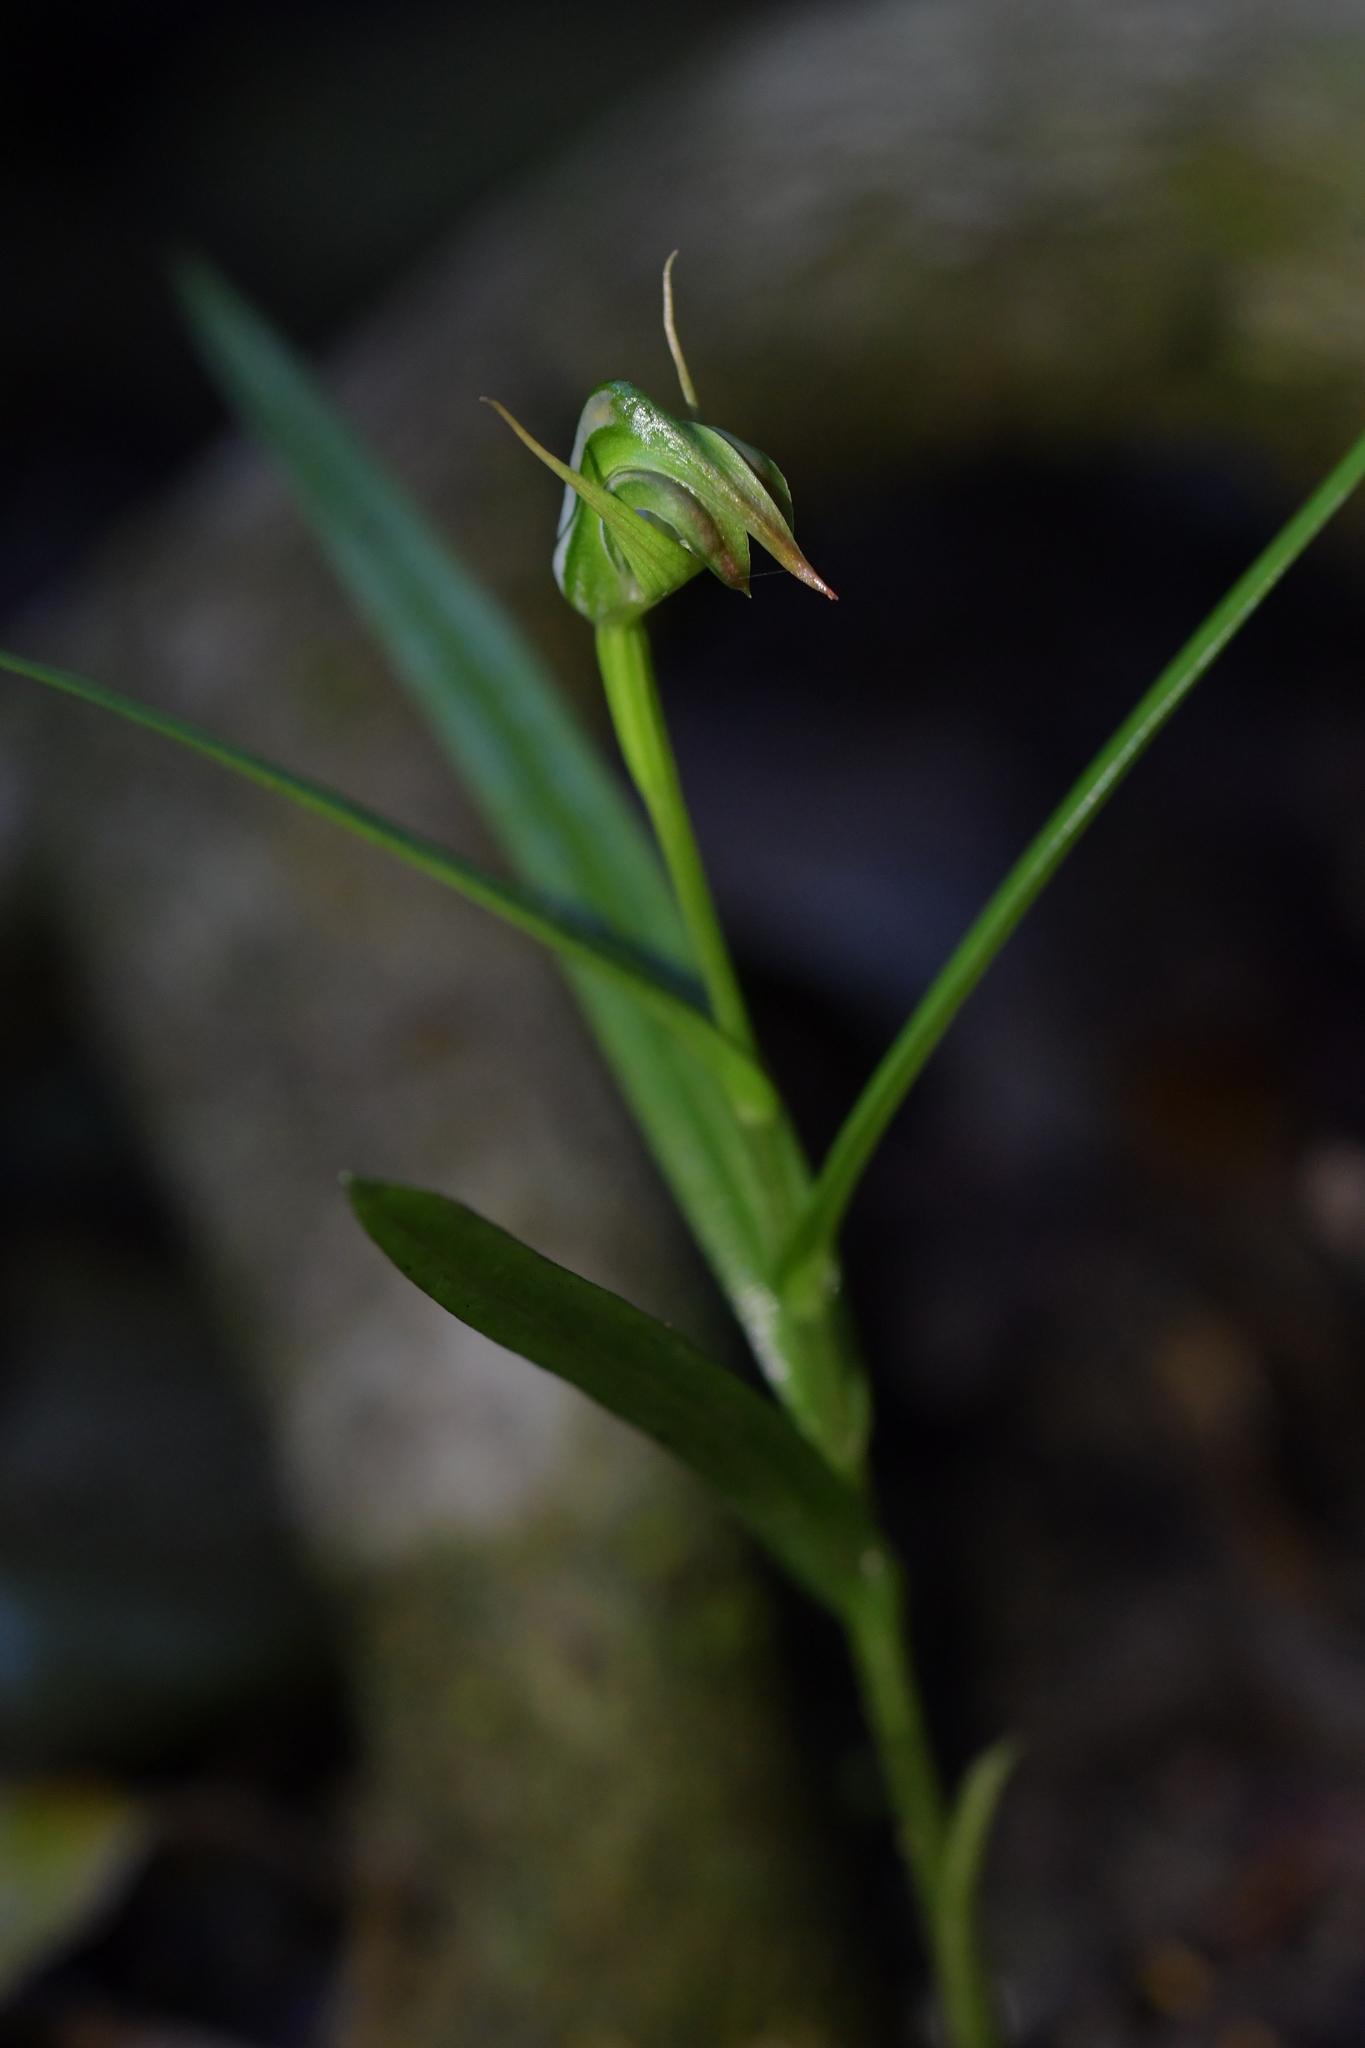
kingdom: Plantae
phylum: Tracheophyta
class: Liliopsida
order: Asparagales
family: Orchidaceae
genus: Pterostylis
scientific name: Pterostylis graminea
